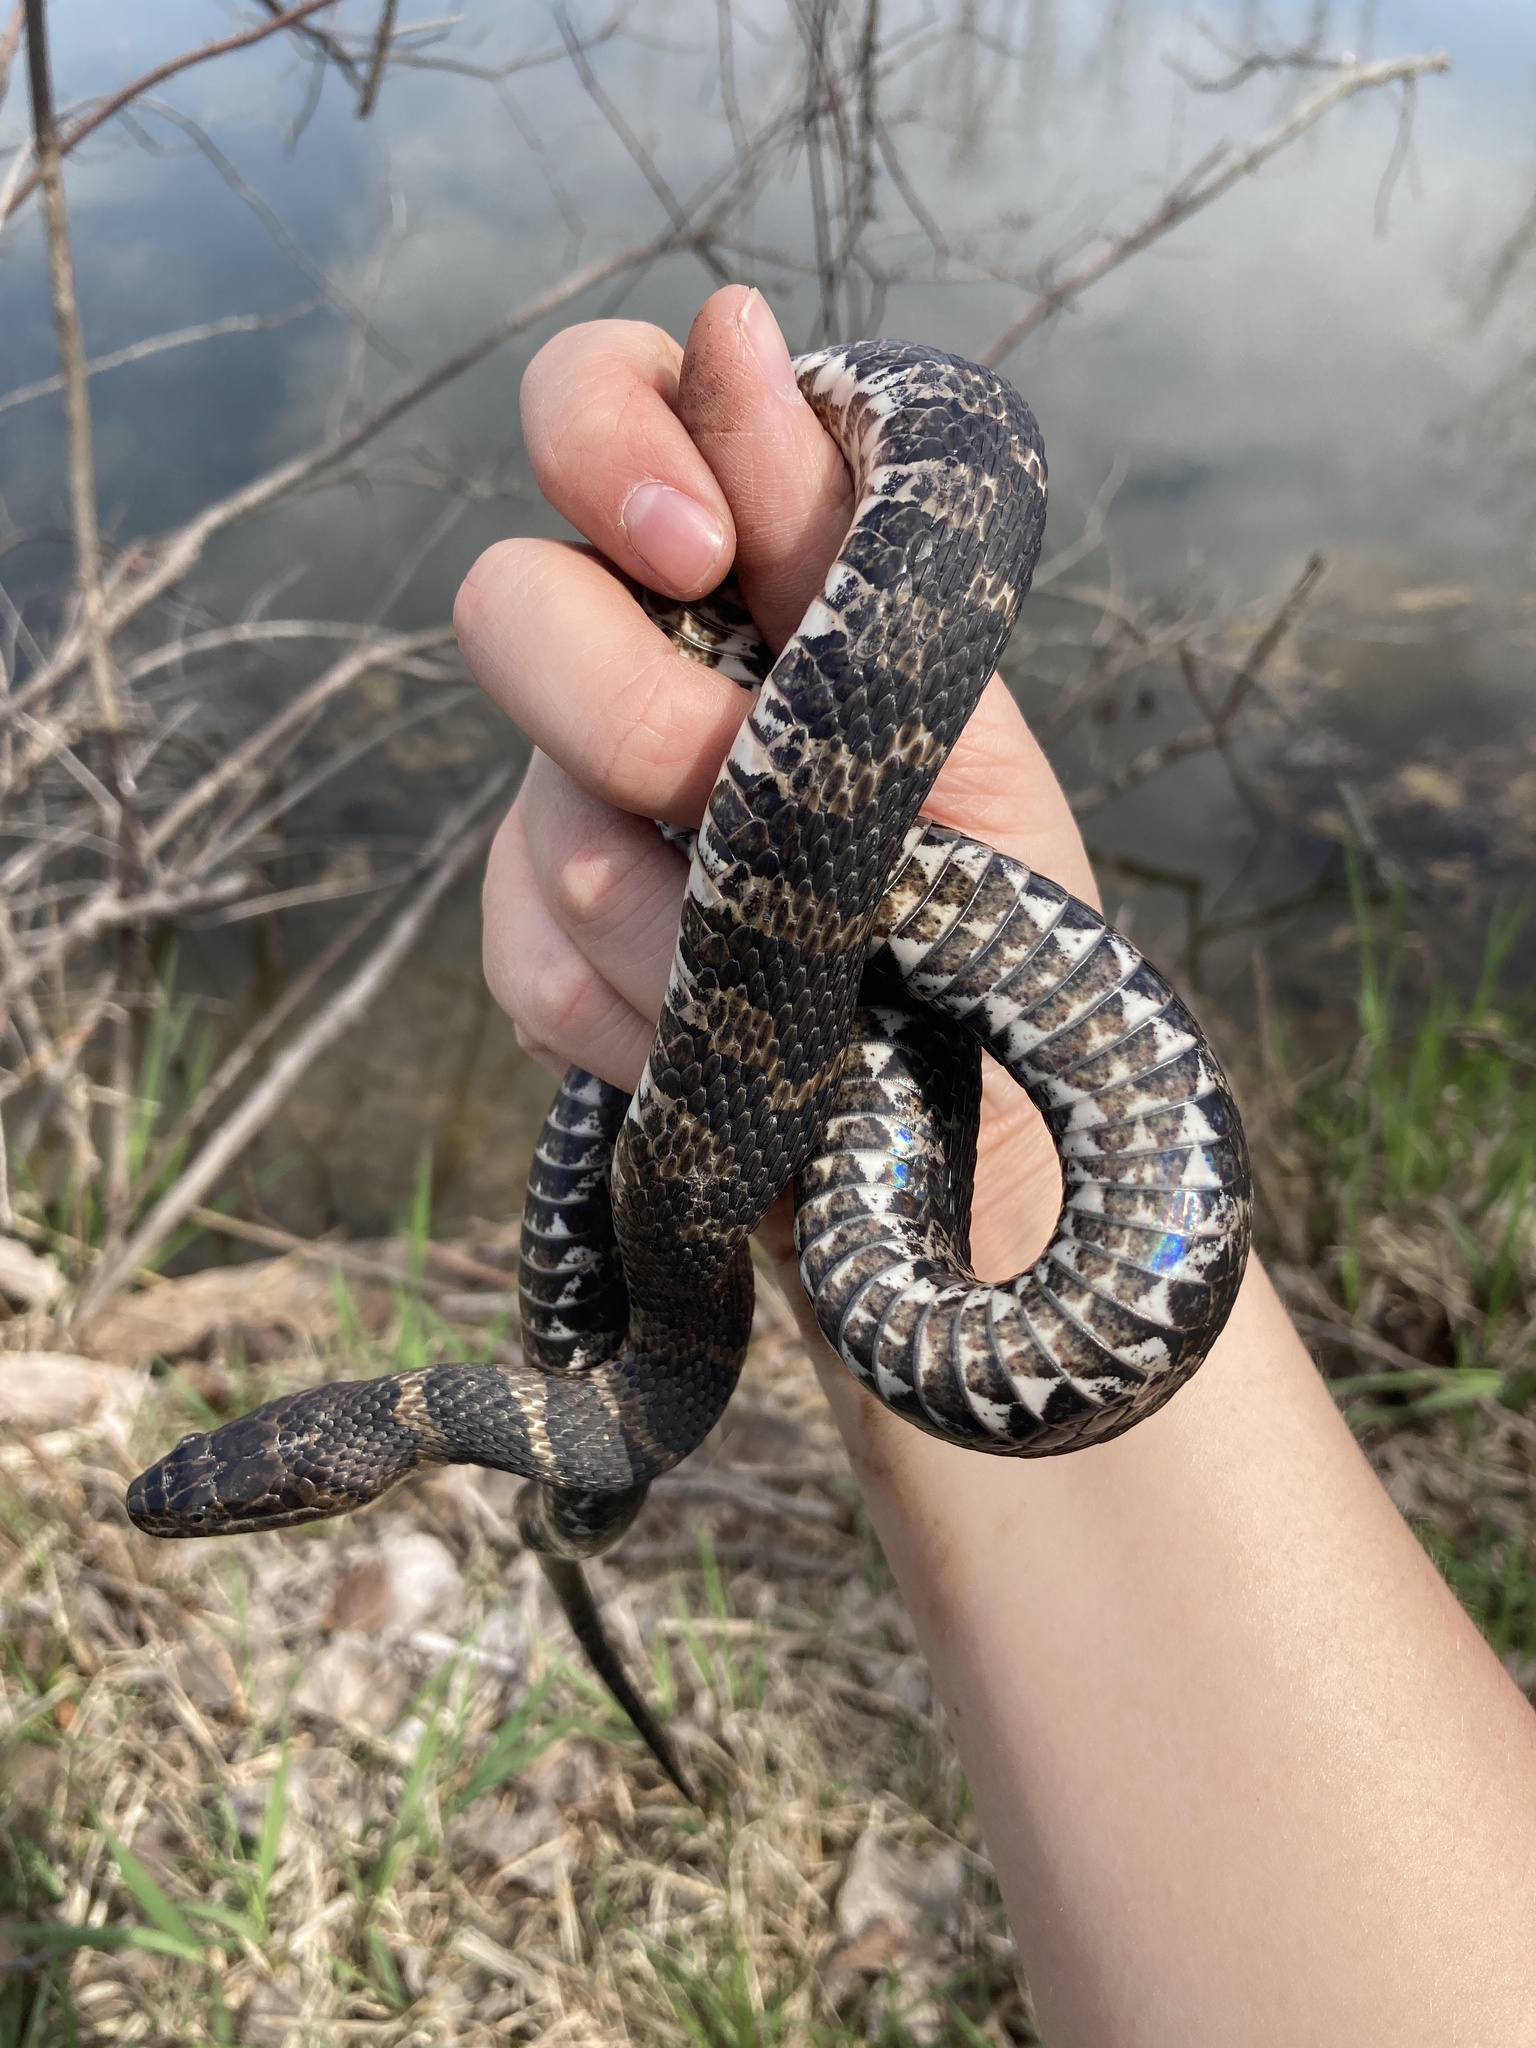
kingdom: Animalia
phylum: Chordata
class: Squamata
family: Colubridae
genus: Nerodia
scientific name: Nerodia sipedon
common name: Northern water snake
